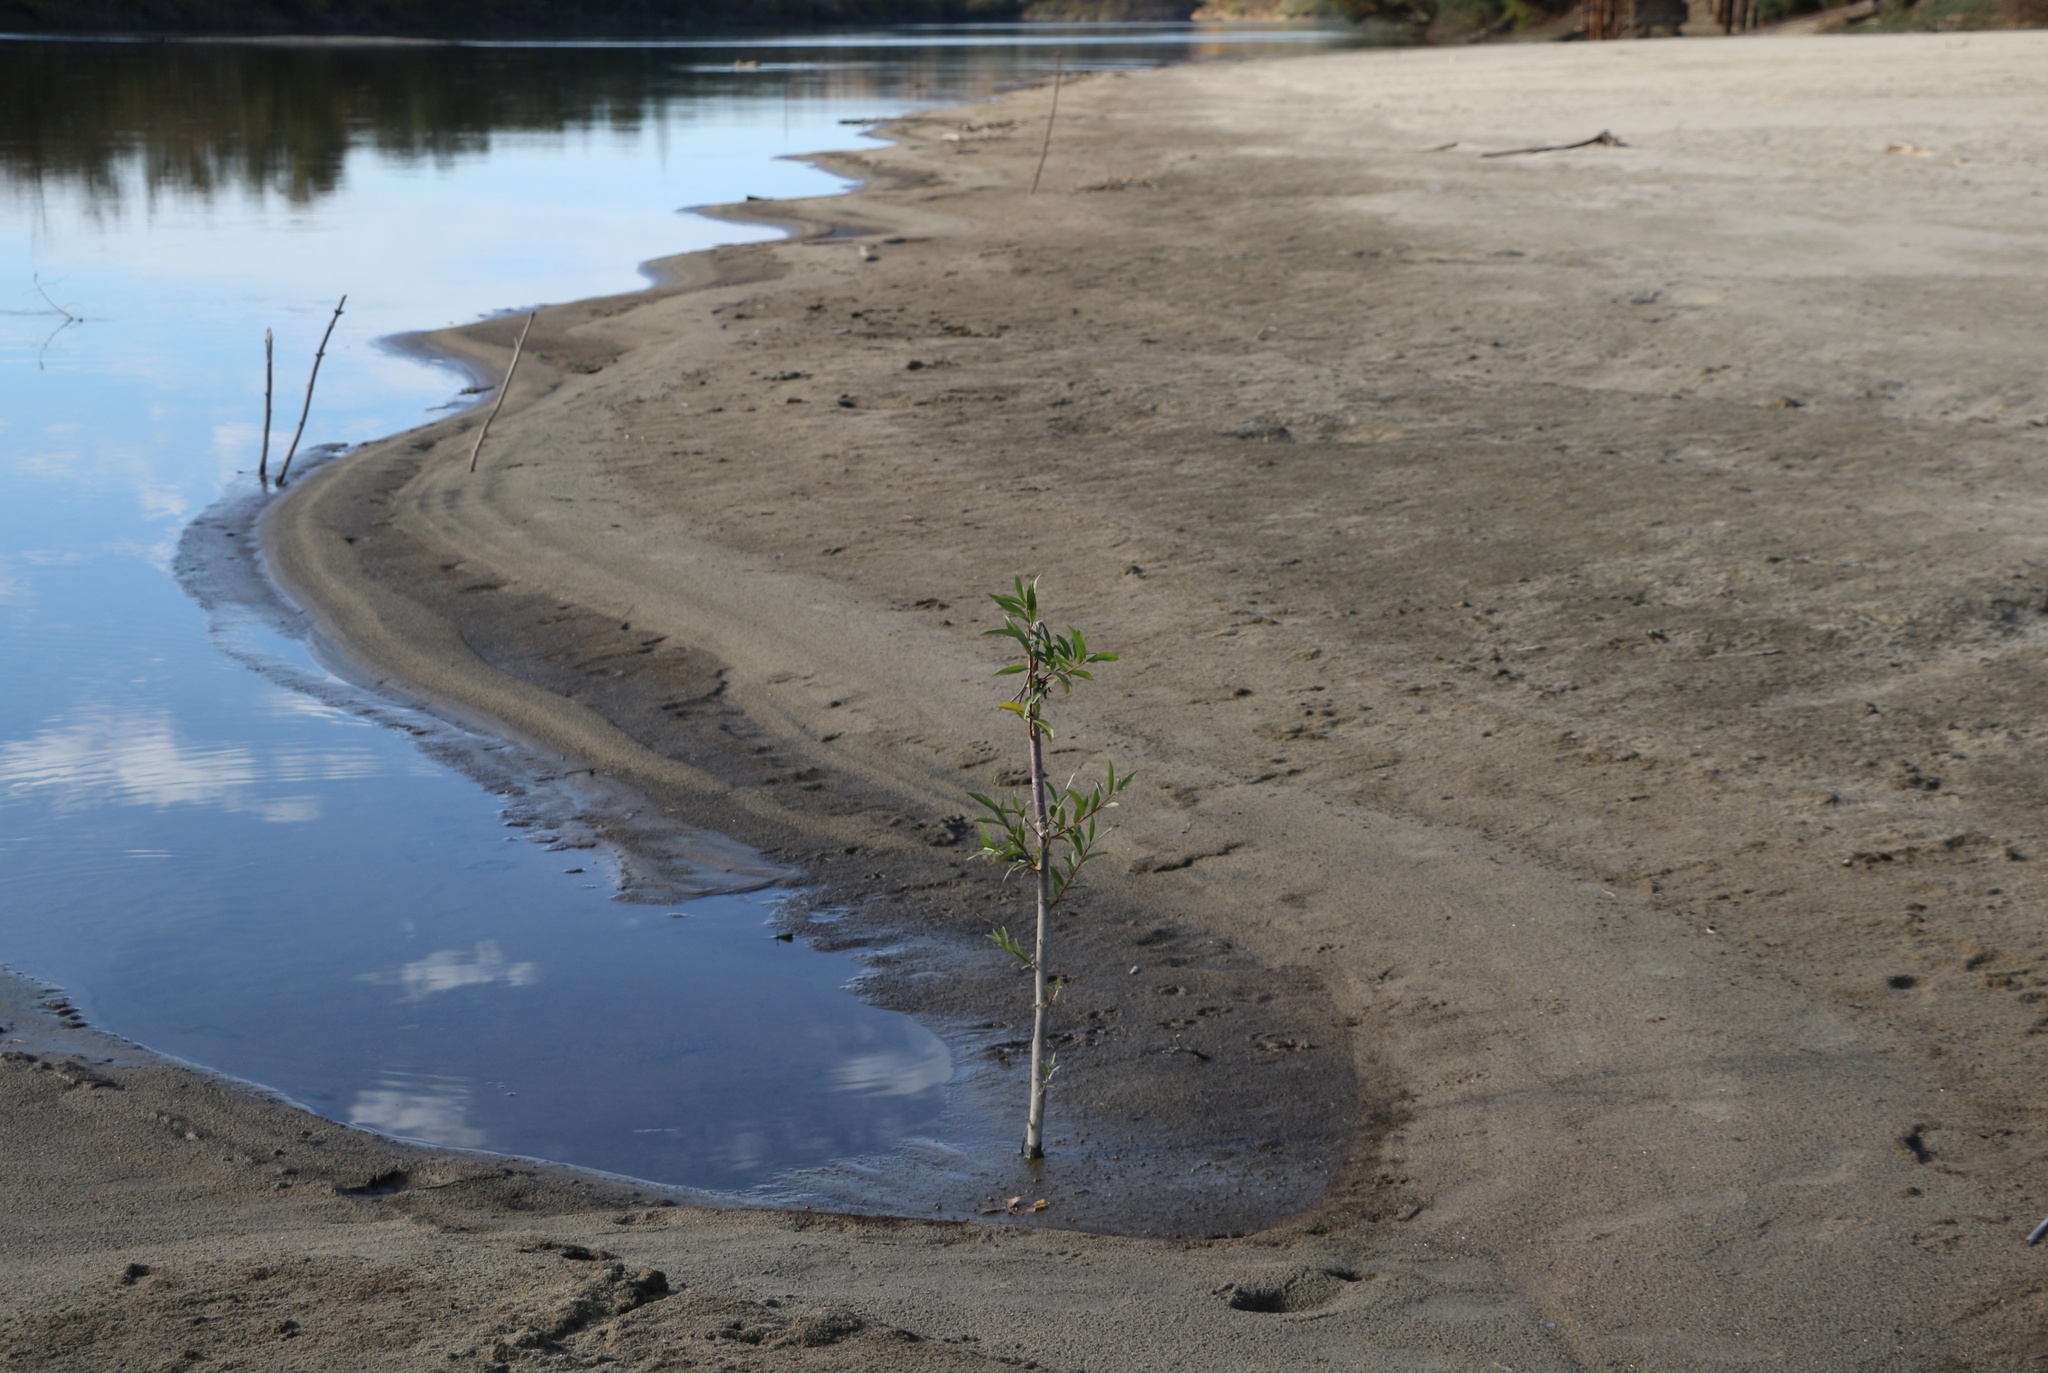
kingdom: Plantae
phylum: Tracheophyta
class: Magnoliopsida
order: Malpighiales
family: Salicaceae
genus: Salix
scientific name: Salix alba
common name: White willow
